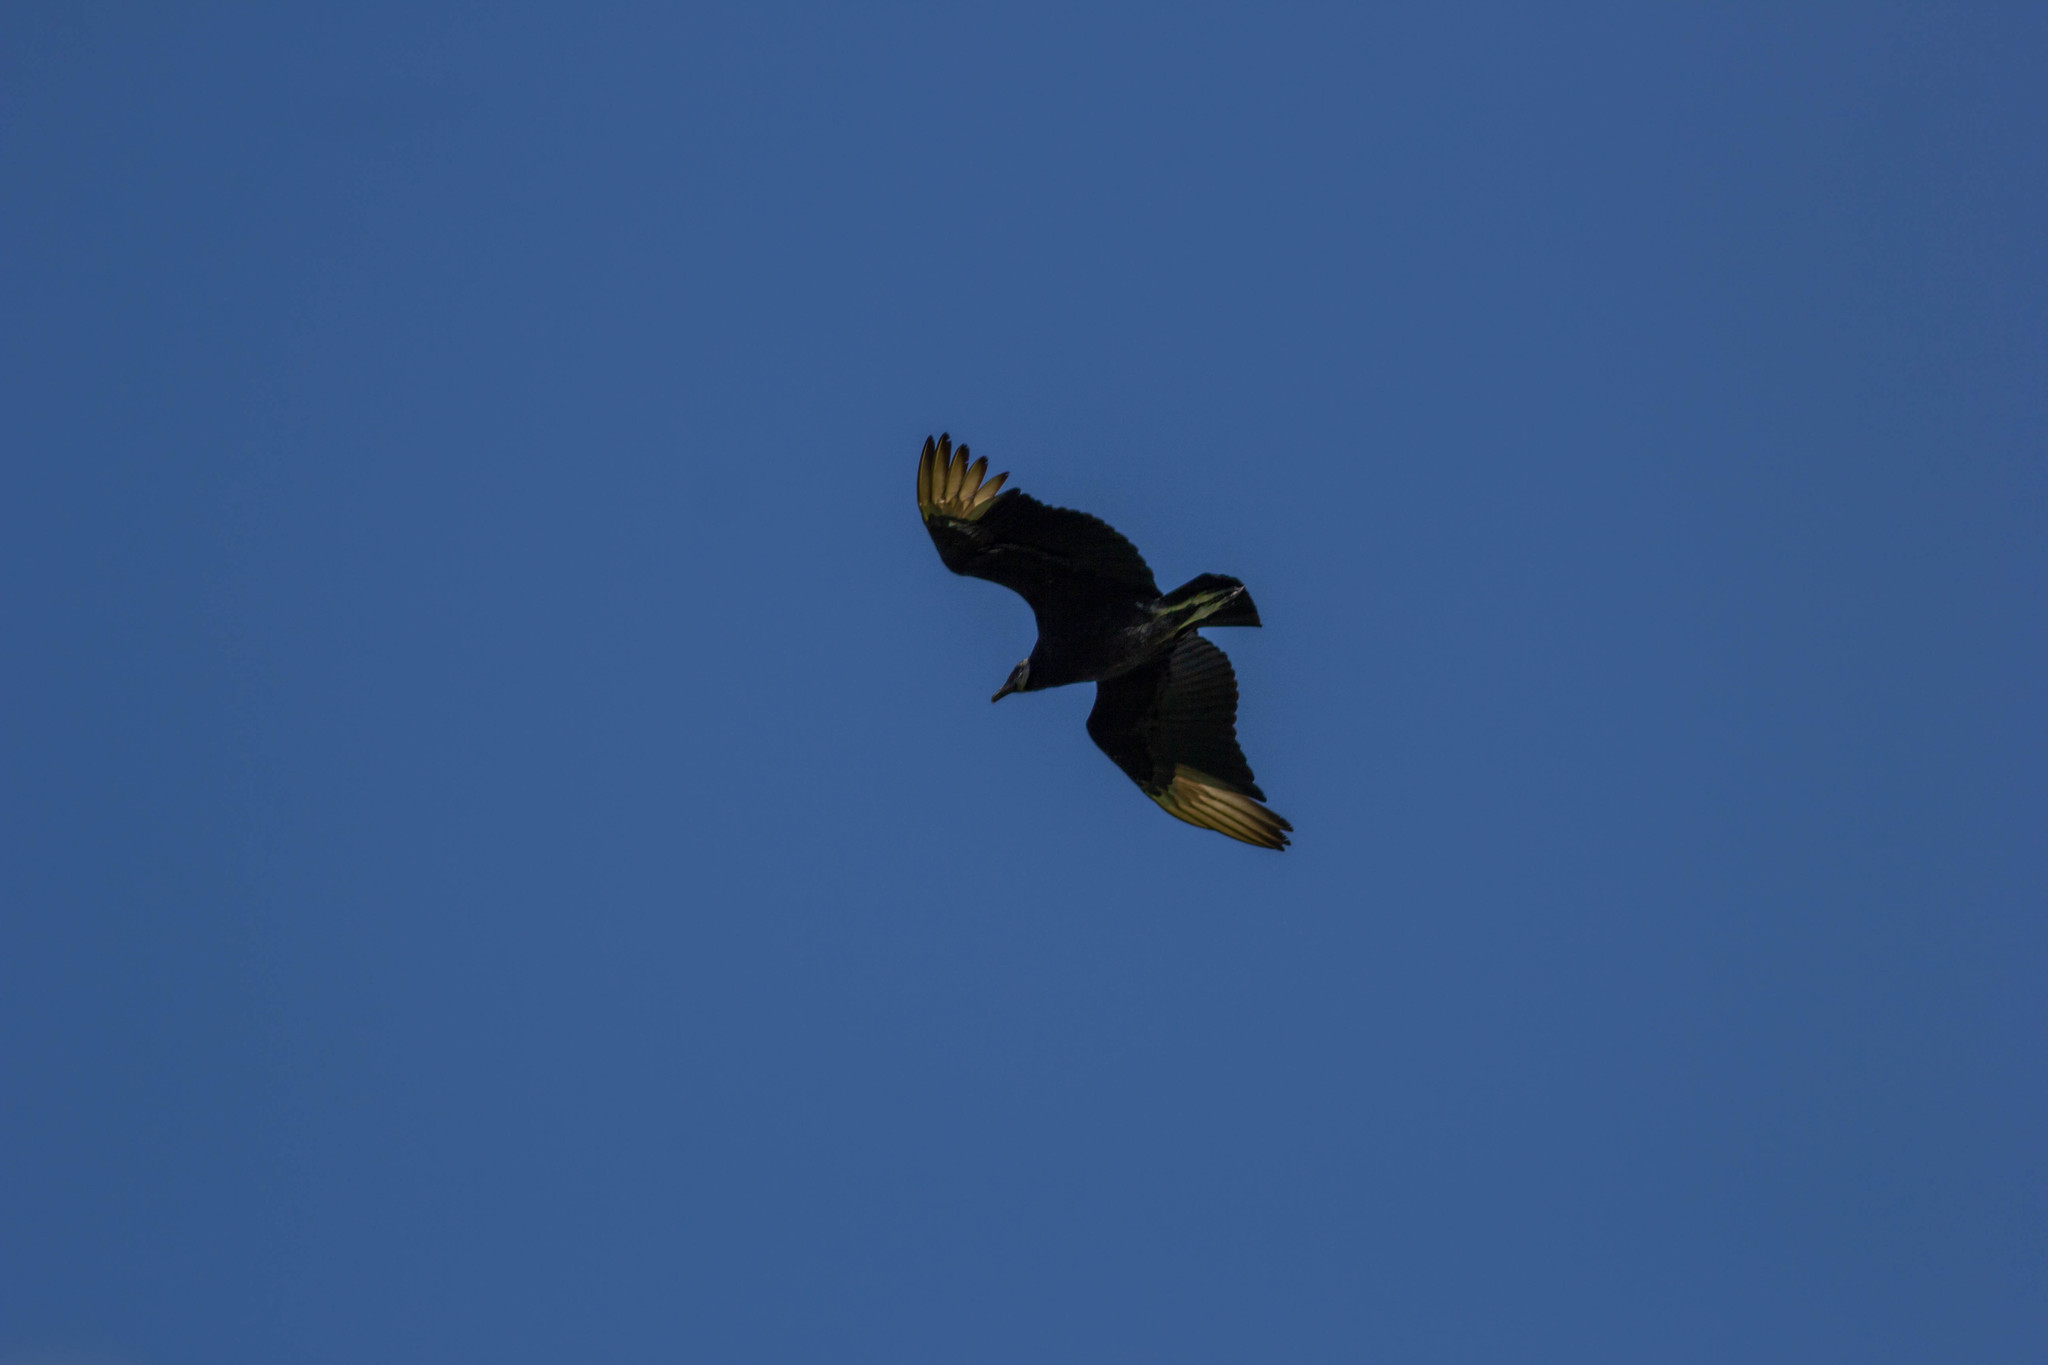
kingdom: Animalia
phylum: Chordata
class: Aves
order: Accipitriformes
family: Cathartidae
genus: Coragyps
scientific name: Coragyps atratus
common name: Black vulture
